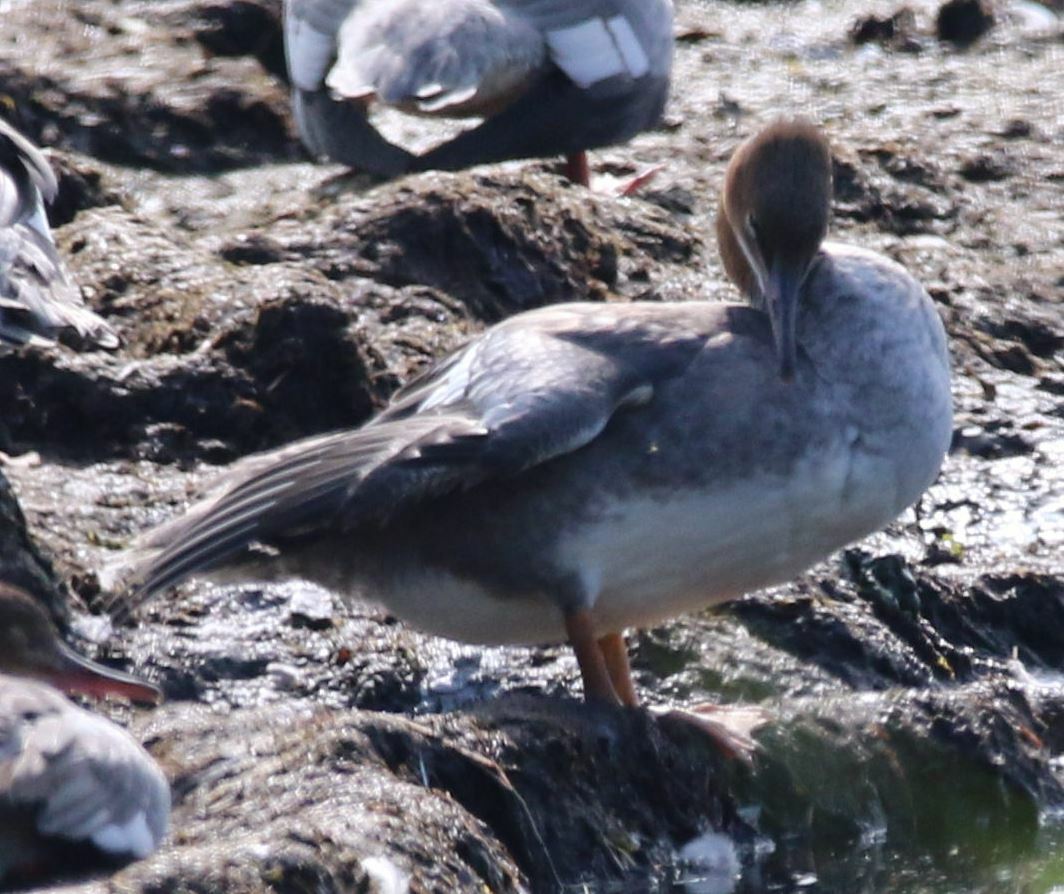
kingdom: Animalia
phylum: Chordata
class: Aves
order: Anseriformes
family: Anatidae
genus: Mergus
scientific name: Mergus merganser
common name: Common merganser
